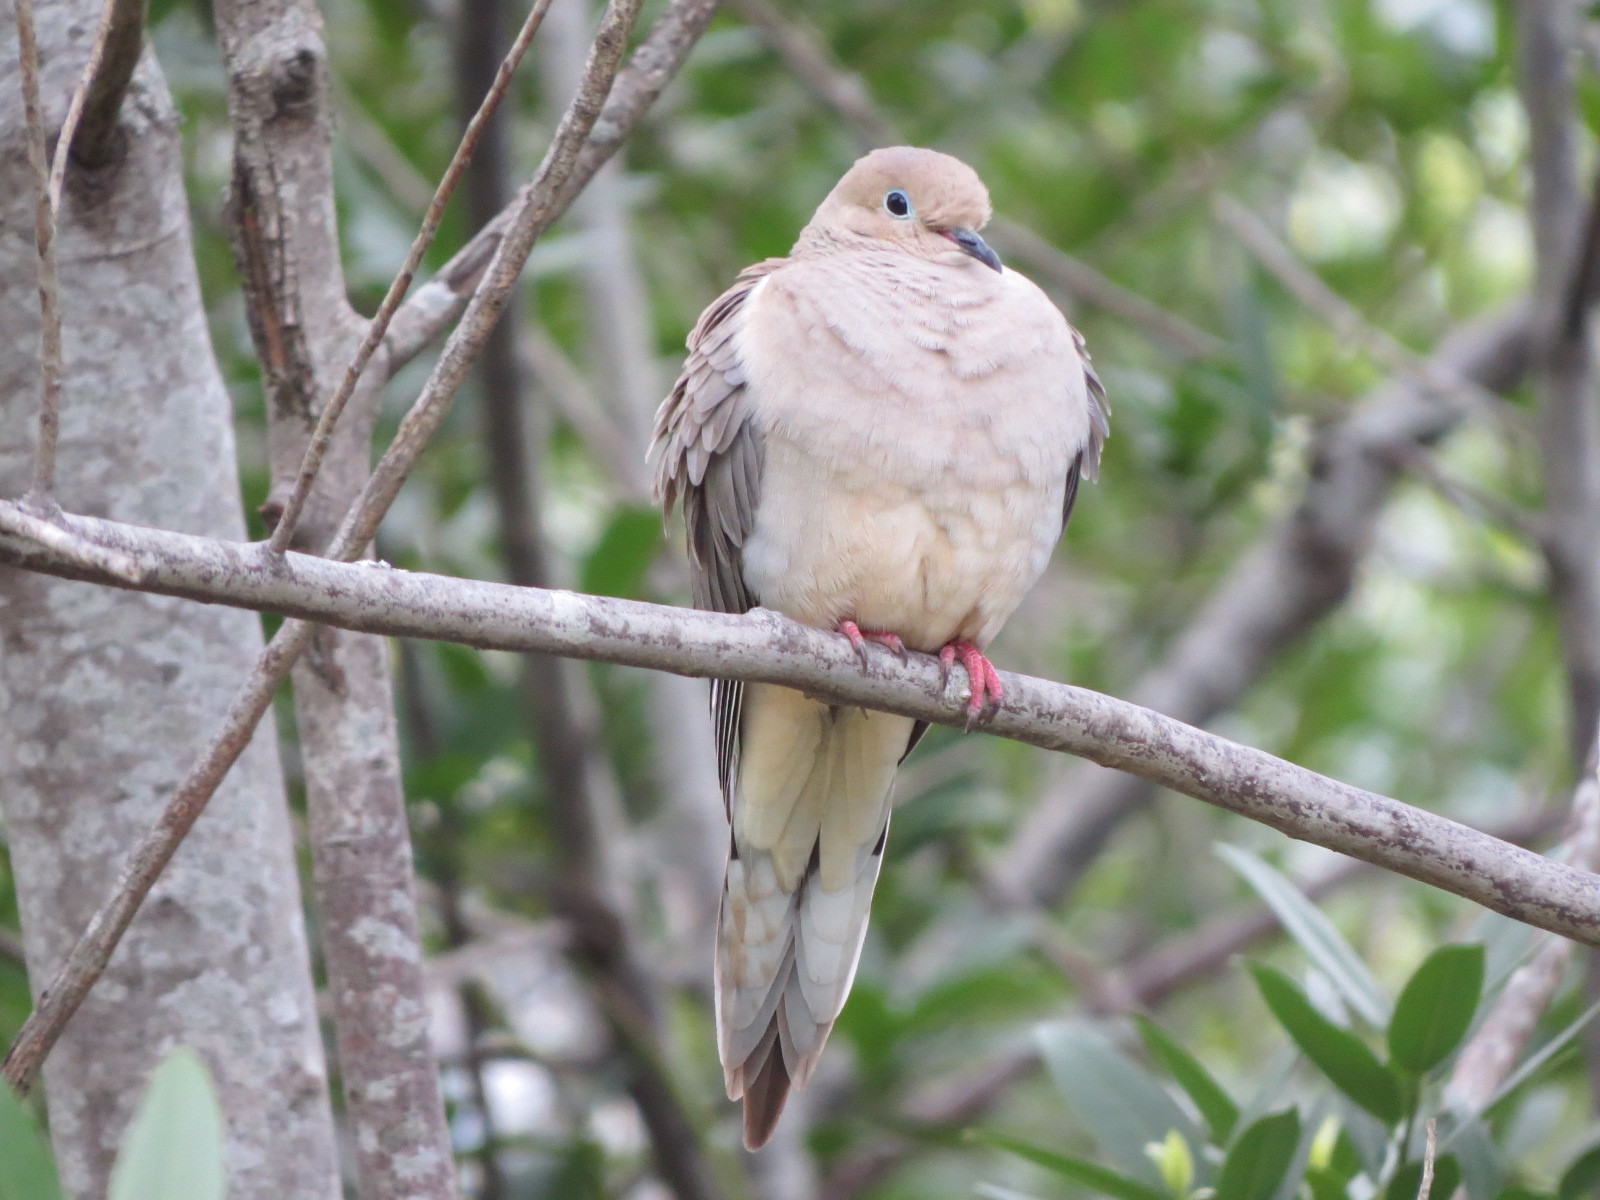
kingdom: Animalia
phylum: Chordata
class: Aves
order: Columbiformes
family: Columbidae
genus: Zenaida
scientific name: Zenaida macroura
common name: Mourning dove
